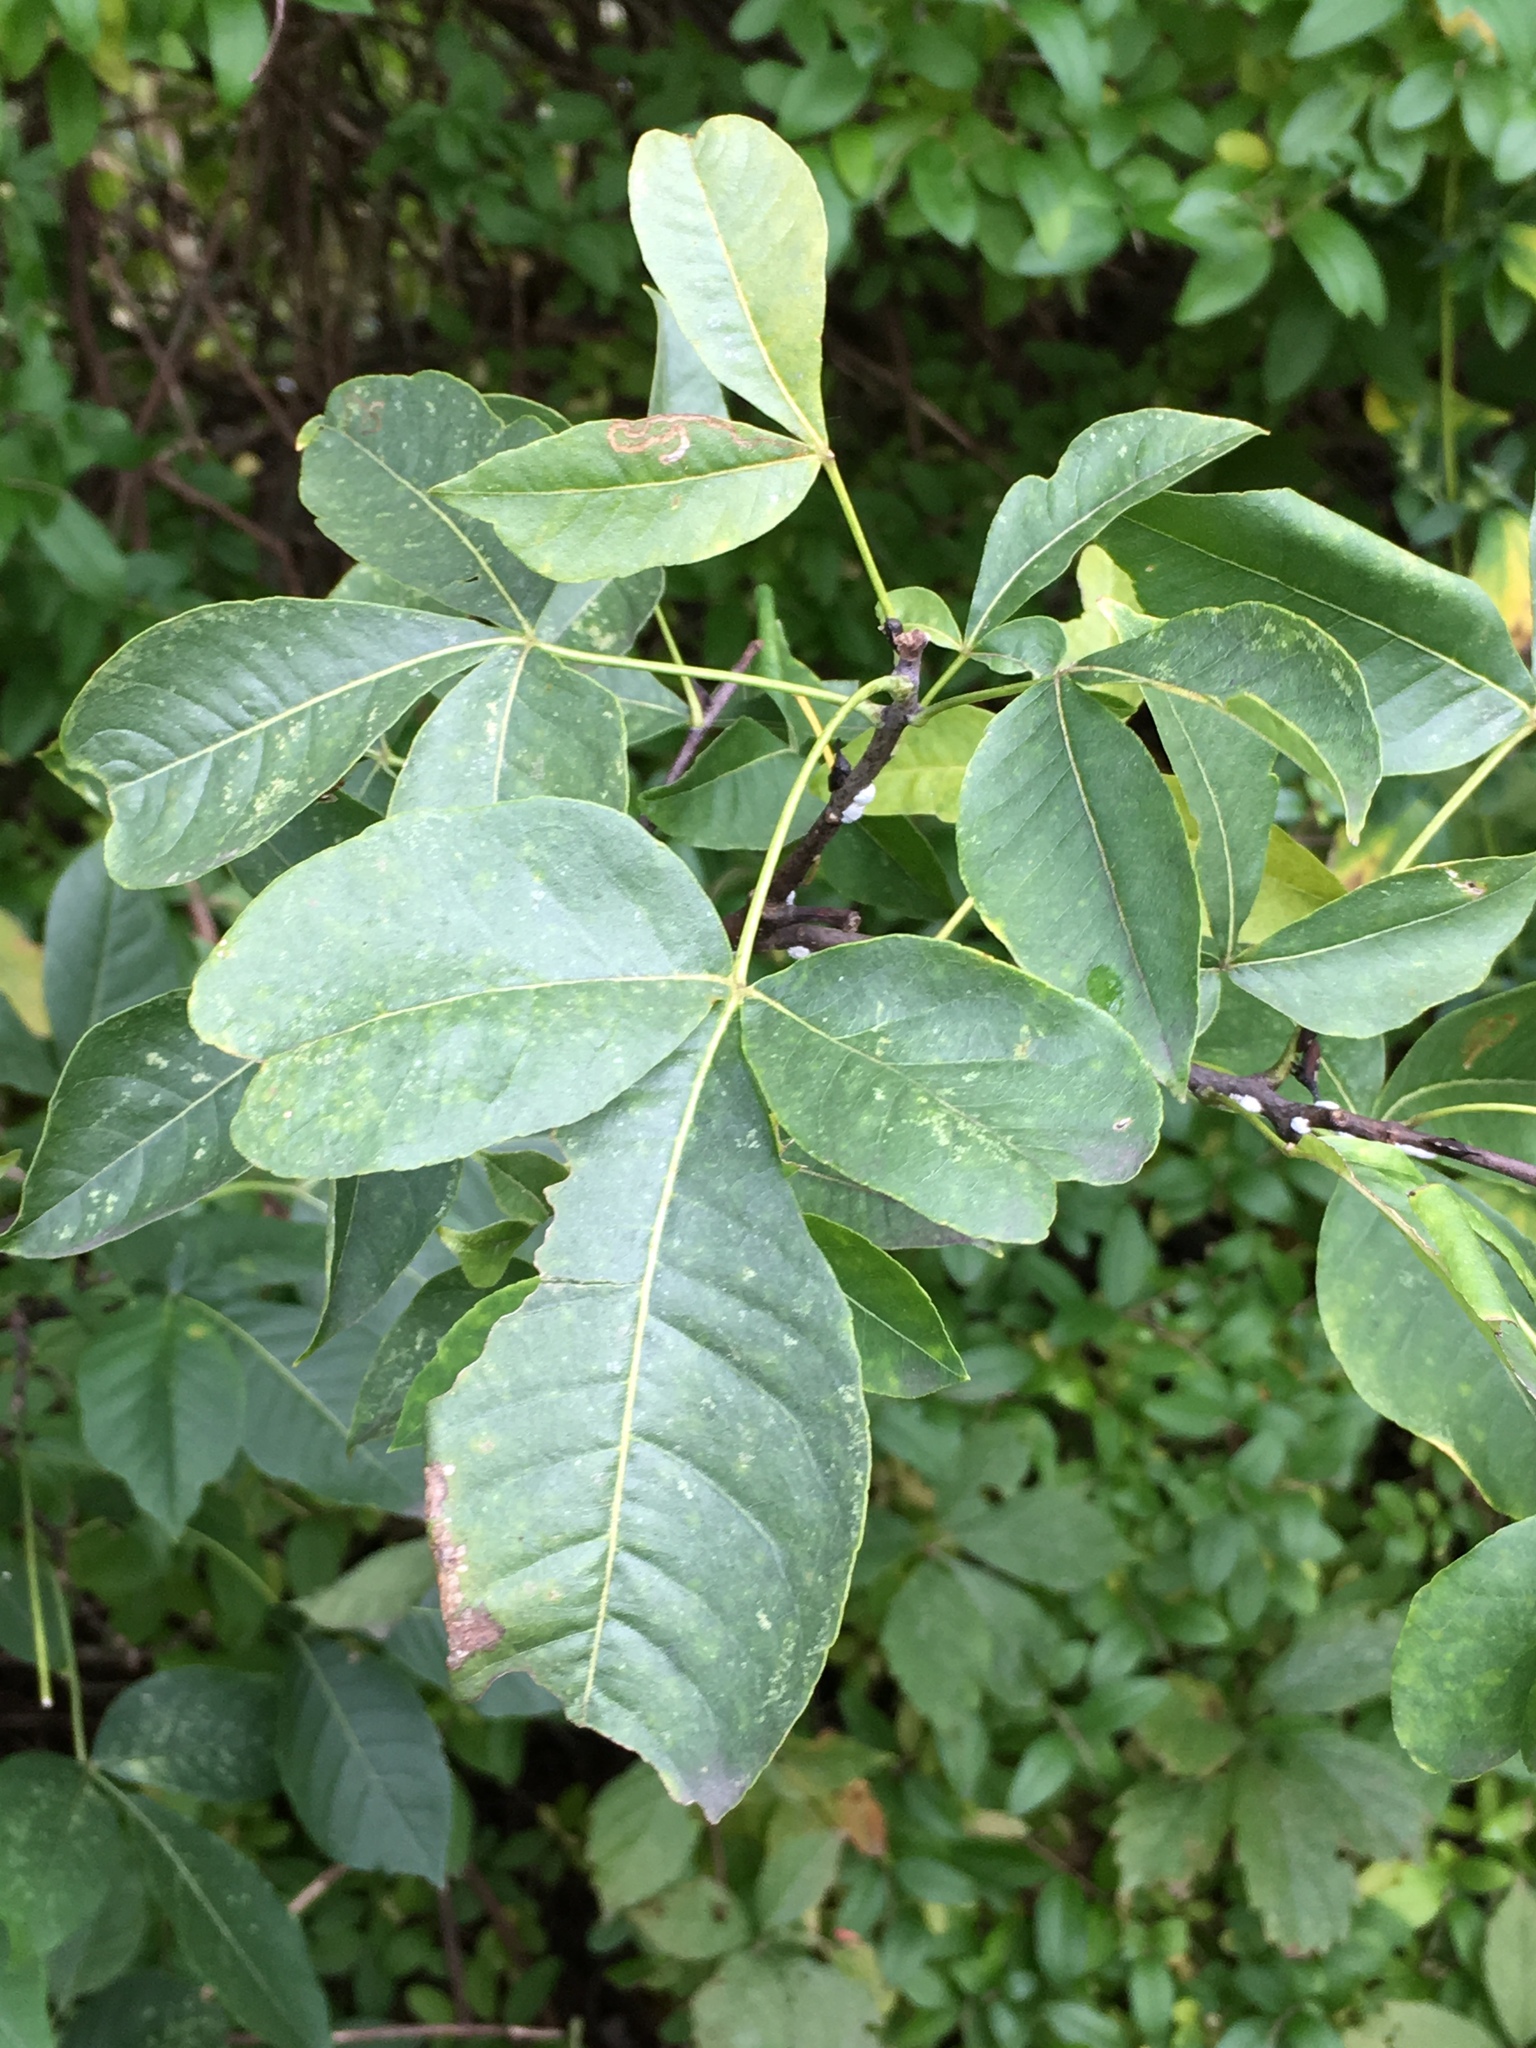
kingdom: Plantae
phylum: Tracheophyta
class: Magnoliopsida
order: Sapindales
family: Rutaceae
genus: Ptelea
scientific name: Ptelea trifoliata
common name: Common hop-tree
